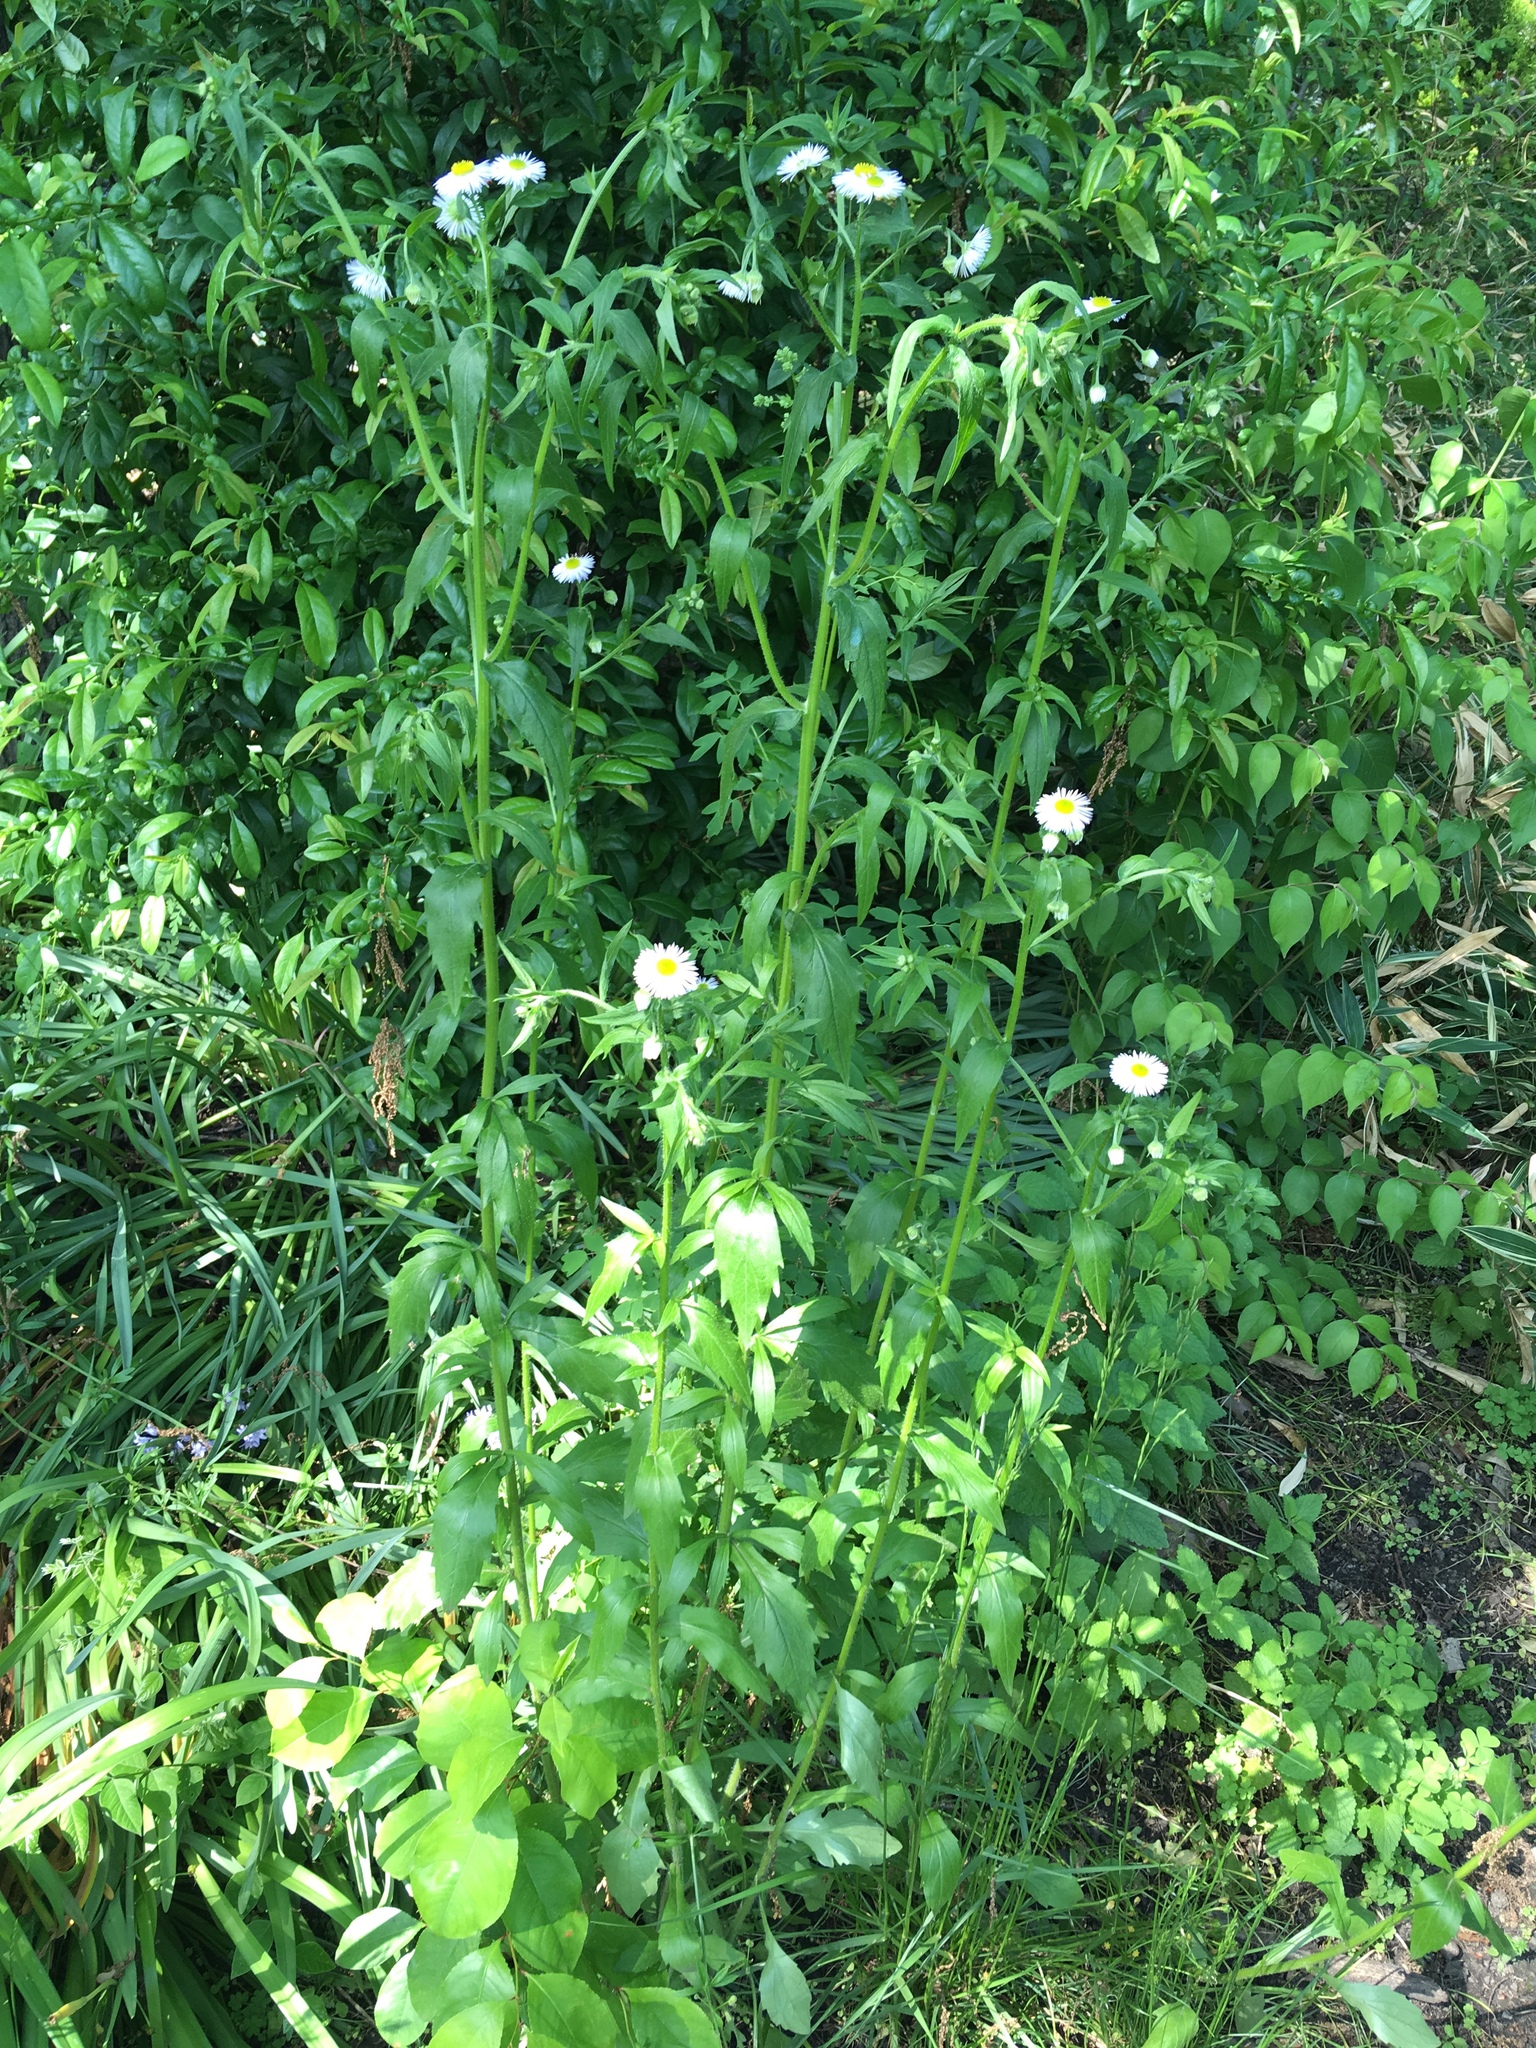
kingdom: Plantae
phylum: Tracheophyta
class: Magnoliopsida
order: Asterales
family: Asteraceae
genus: Erigeron
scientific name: Erigeron philadelphicus
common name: Robin's-plantain
